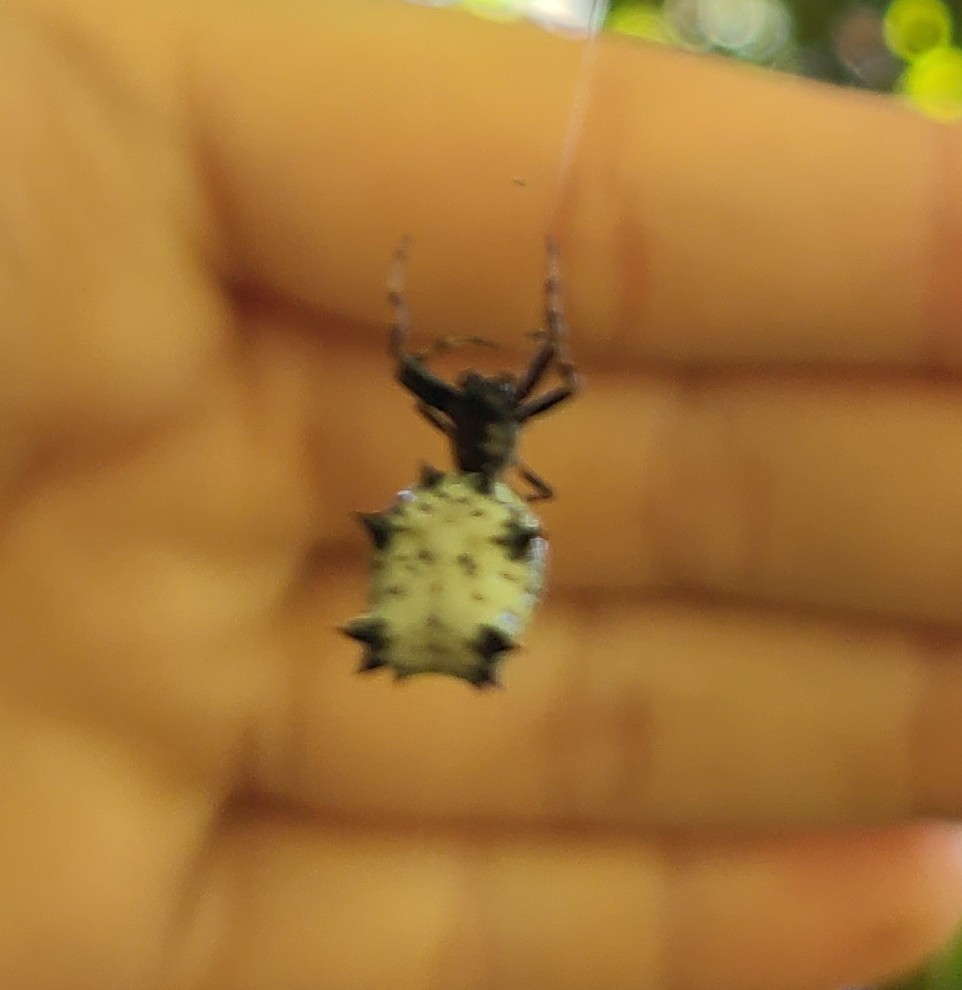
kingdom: Animalia
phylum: Arthropoda
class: Arachnida
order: Araneae
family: Araneidae
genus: Micrathena
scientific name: Micrathena gracilis
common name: Orb weavers
